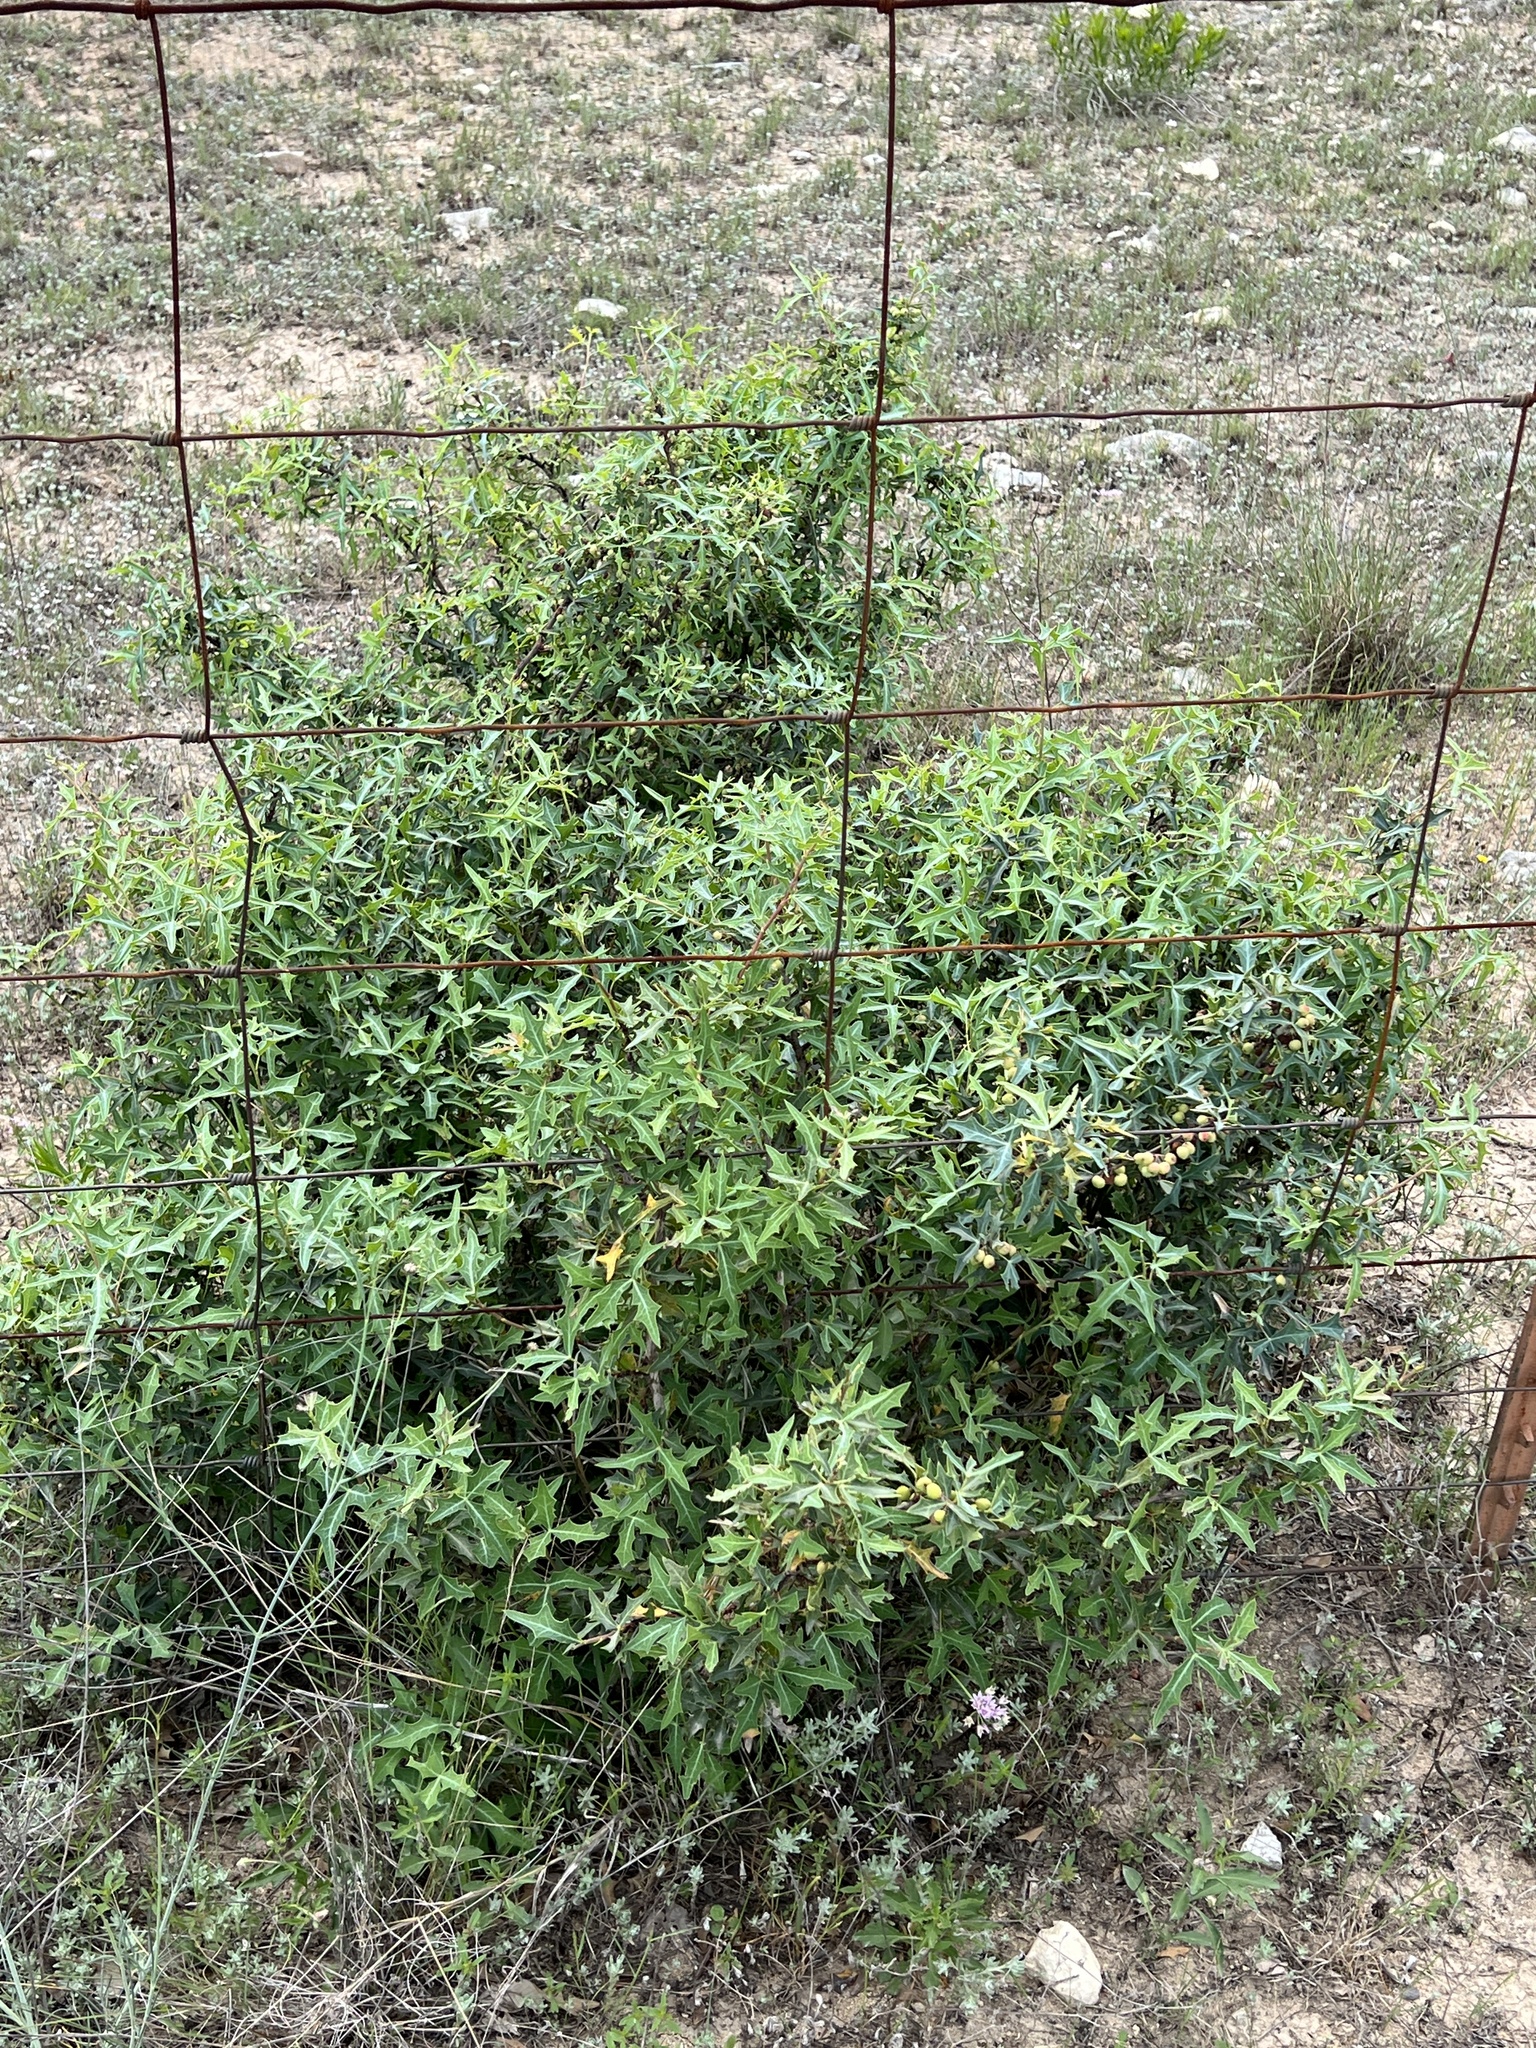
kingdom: Plantae
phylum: Tracheophyta
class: Magnoliopsida
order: Ranunculales
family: Berberidaceae
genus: Alloberberis
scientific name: Alloberberis trifoliolata
